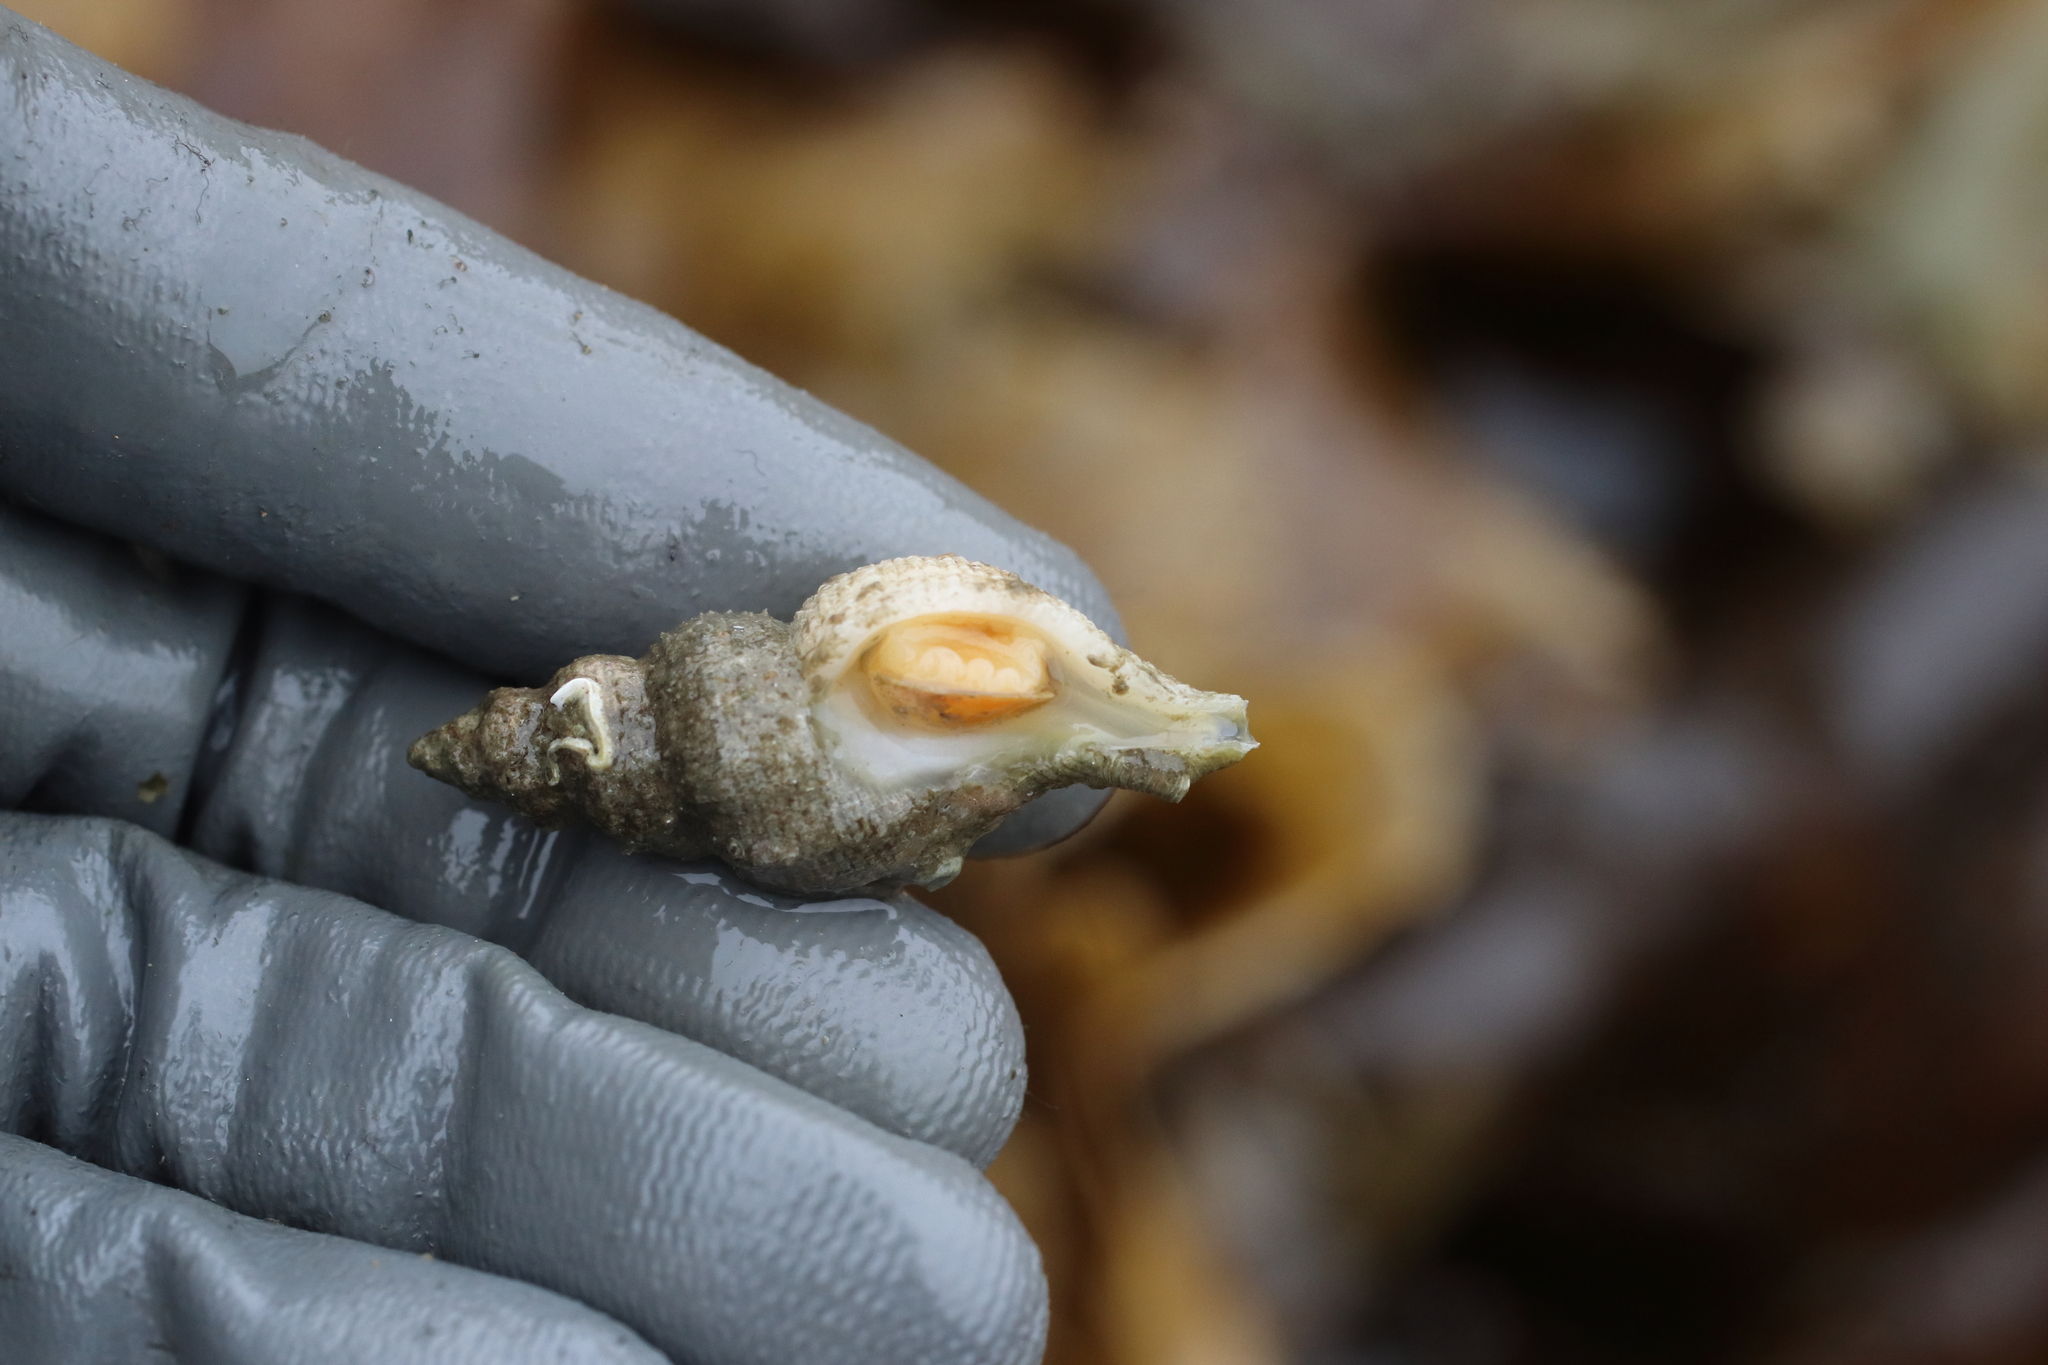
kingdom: Animalia
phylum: Mollusca
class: Gastropoda
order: Neogastropoda
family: Muricidae
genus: Scabrotrophon
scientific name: Scabrotrophon maltzani
